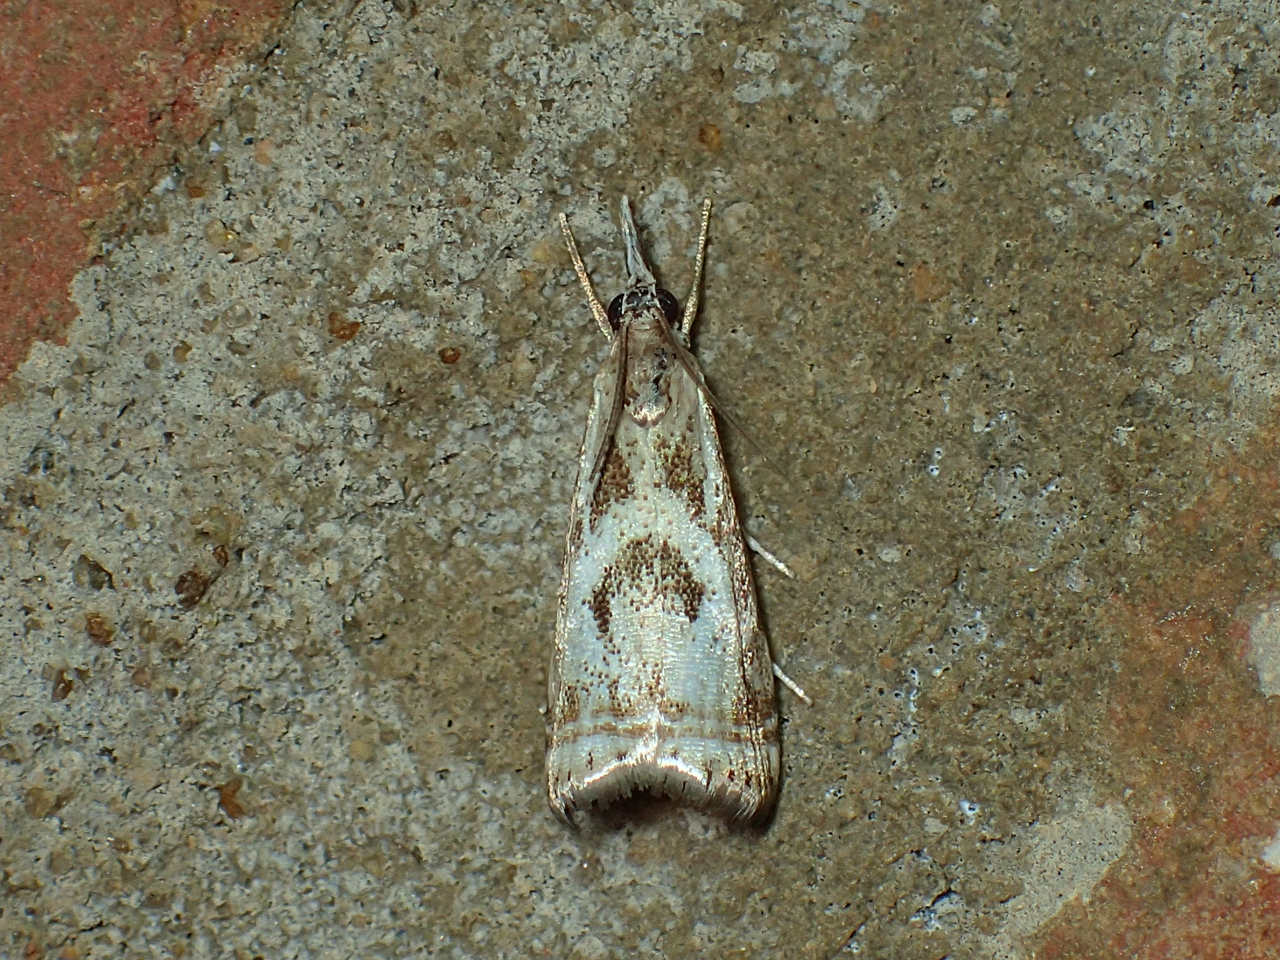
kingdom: Animalia
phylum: Arthropoda
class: Insecta
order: Lepidoptera
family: Crambidae
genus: Microcrambus
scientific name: Microcrambus elegans
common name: Elegant grass-veneer
